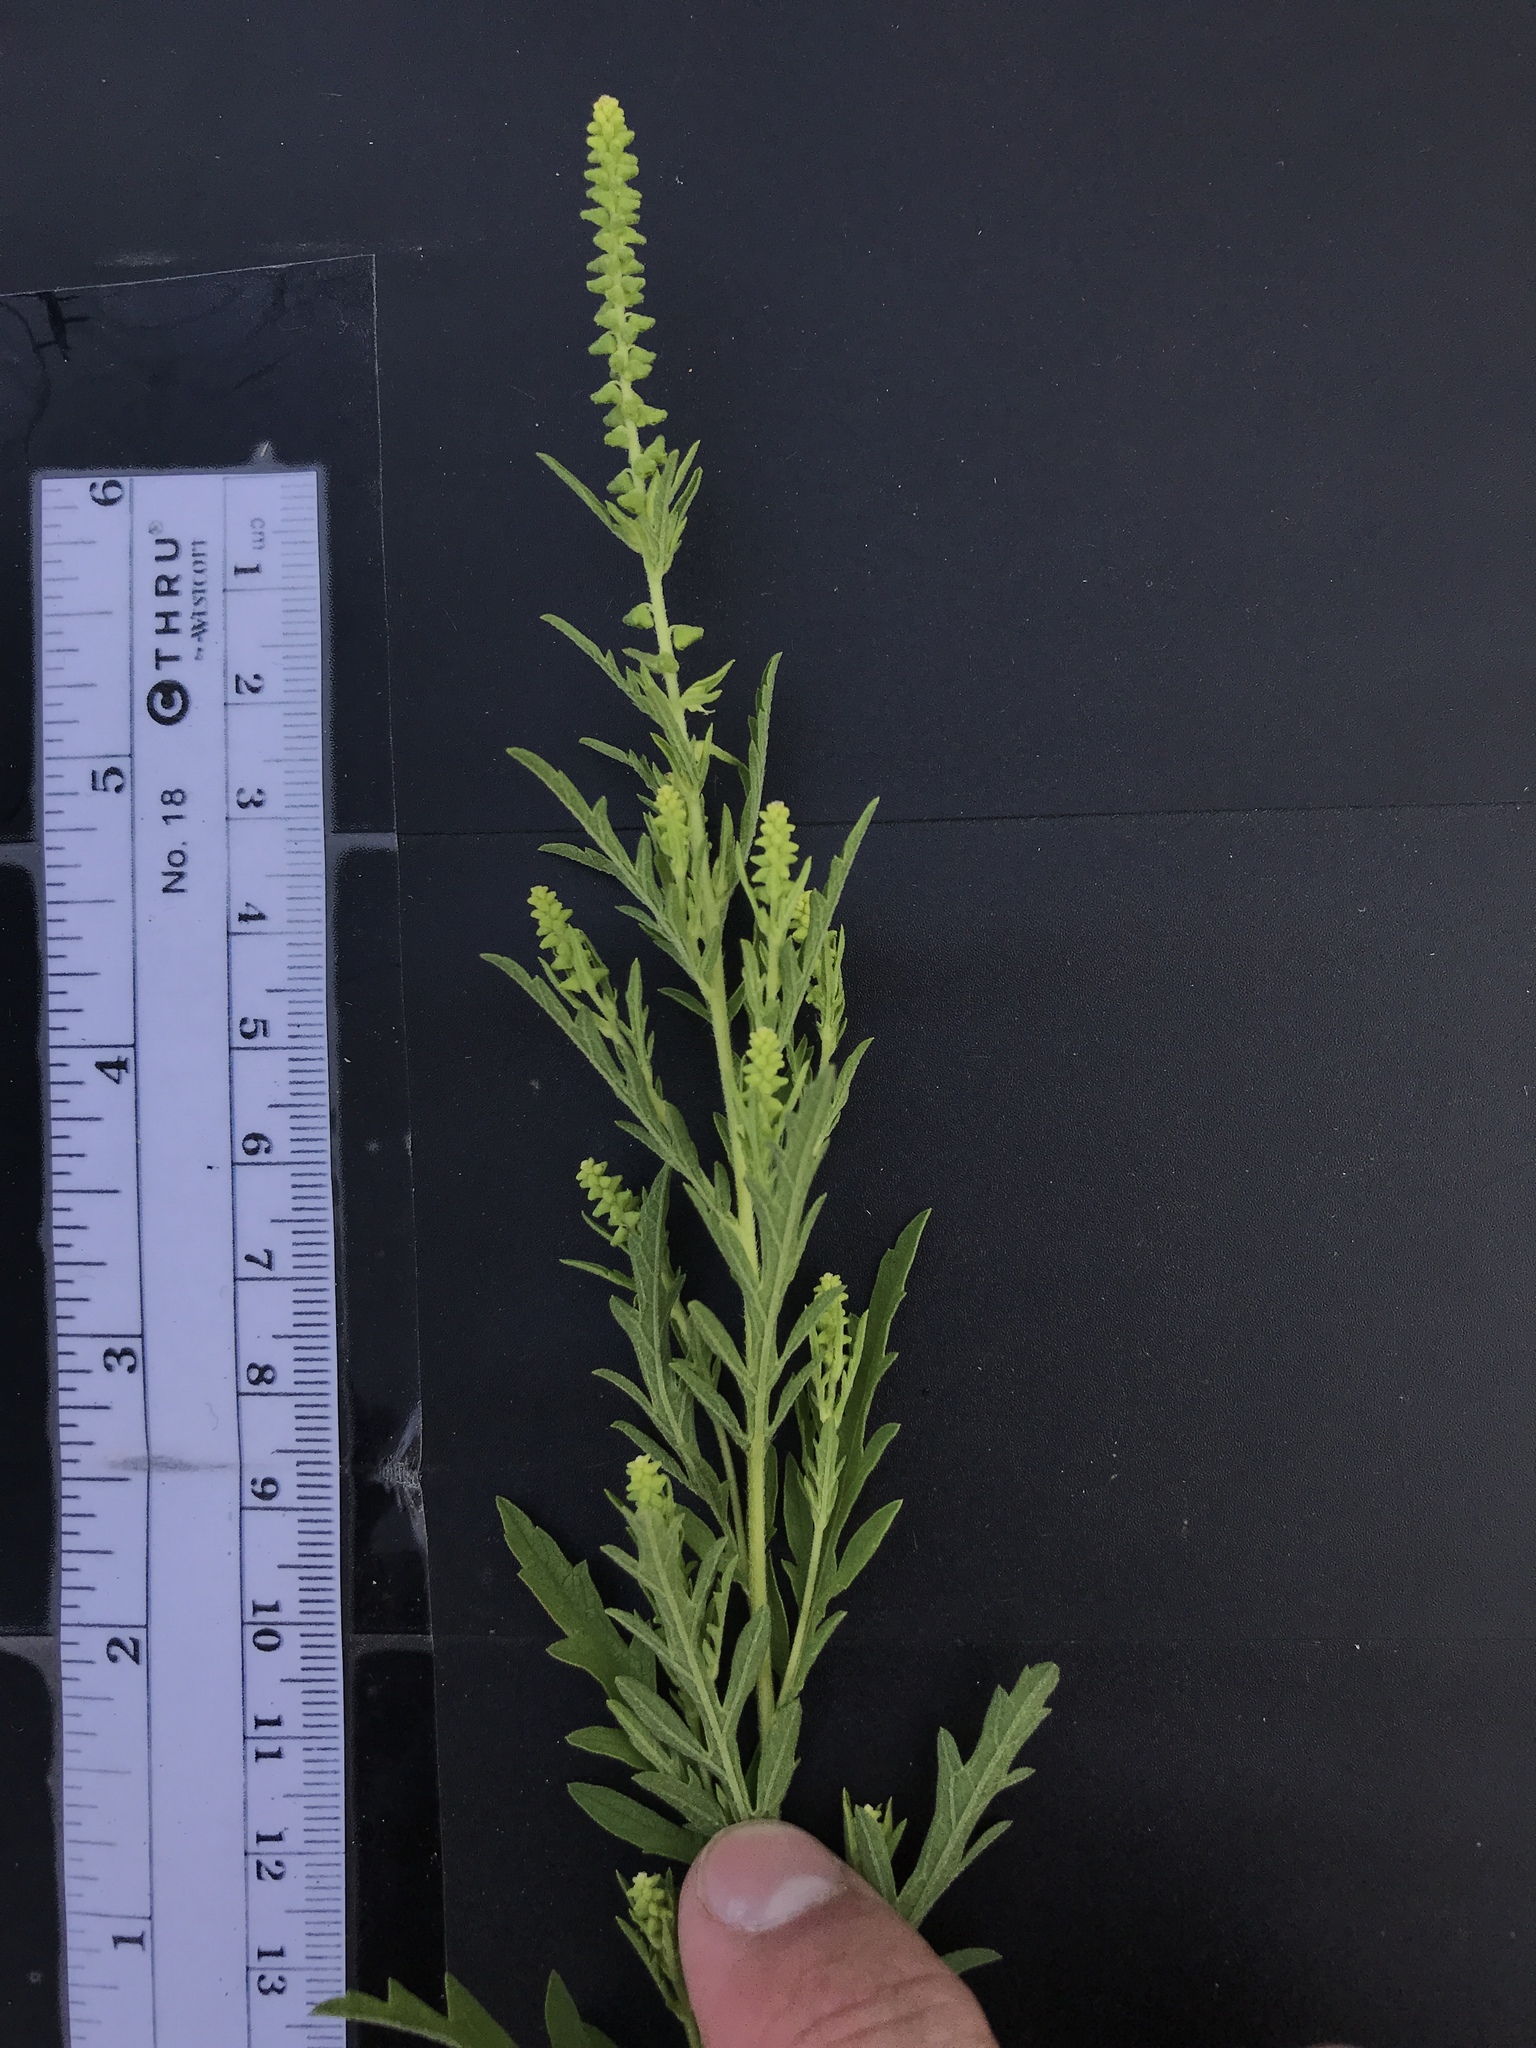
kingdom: Plantae
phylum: Tracheophyta
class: Magnoliopsida
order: Asterales
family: Asteraceae
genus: Ambrosia
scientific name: Ambrosia psilostachya
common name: Perennial ragweed
